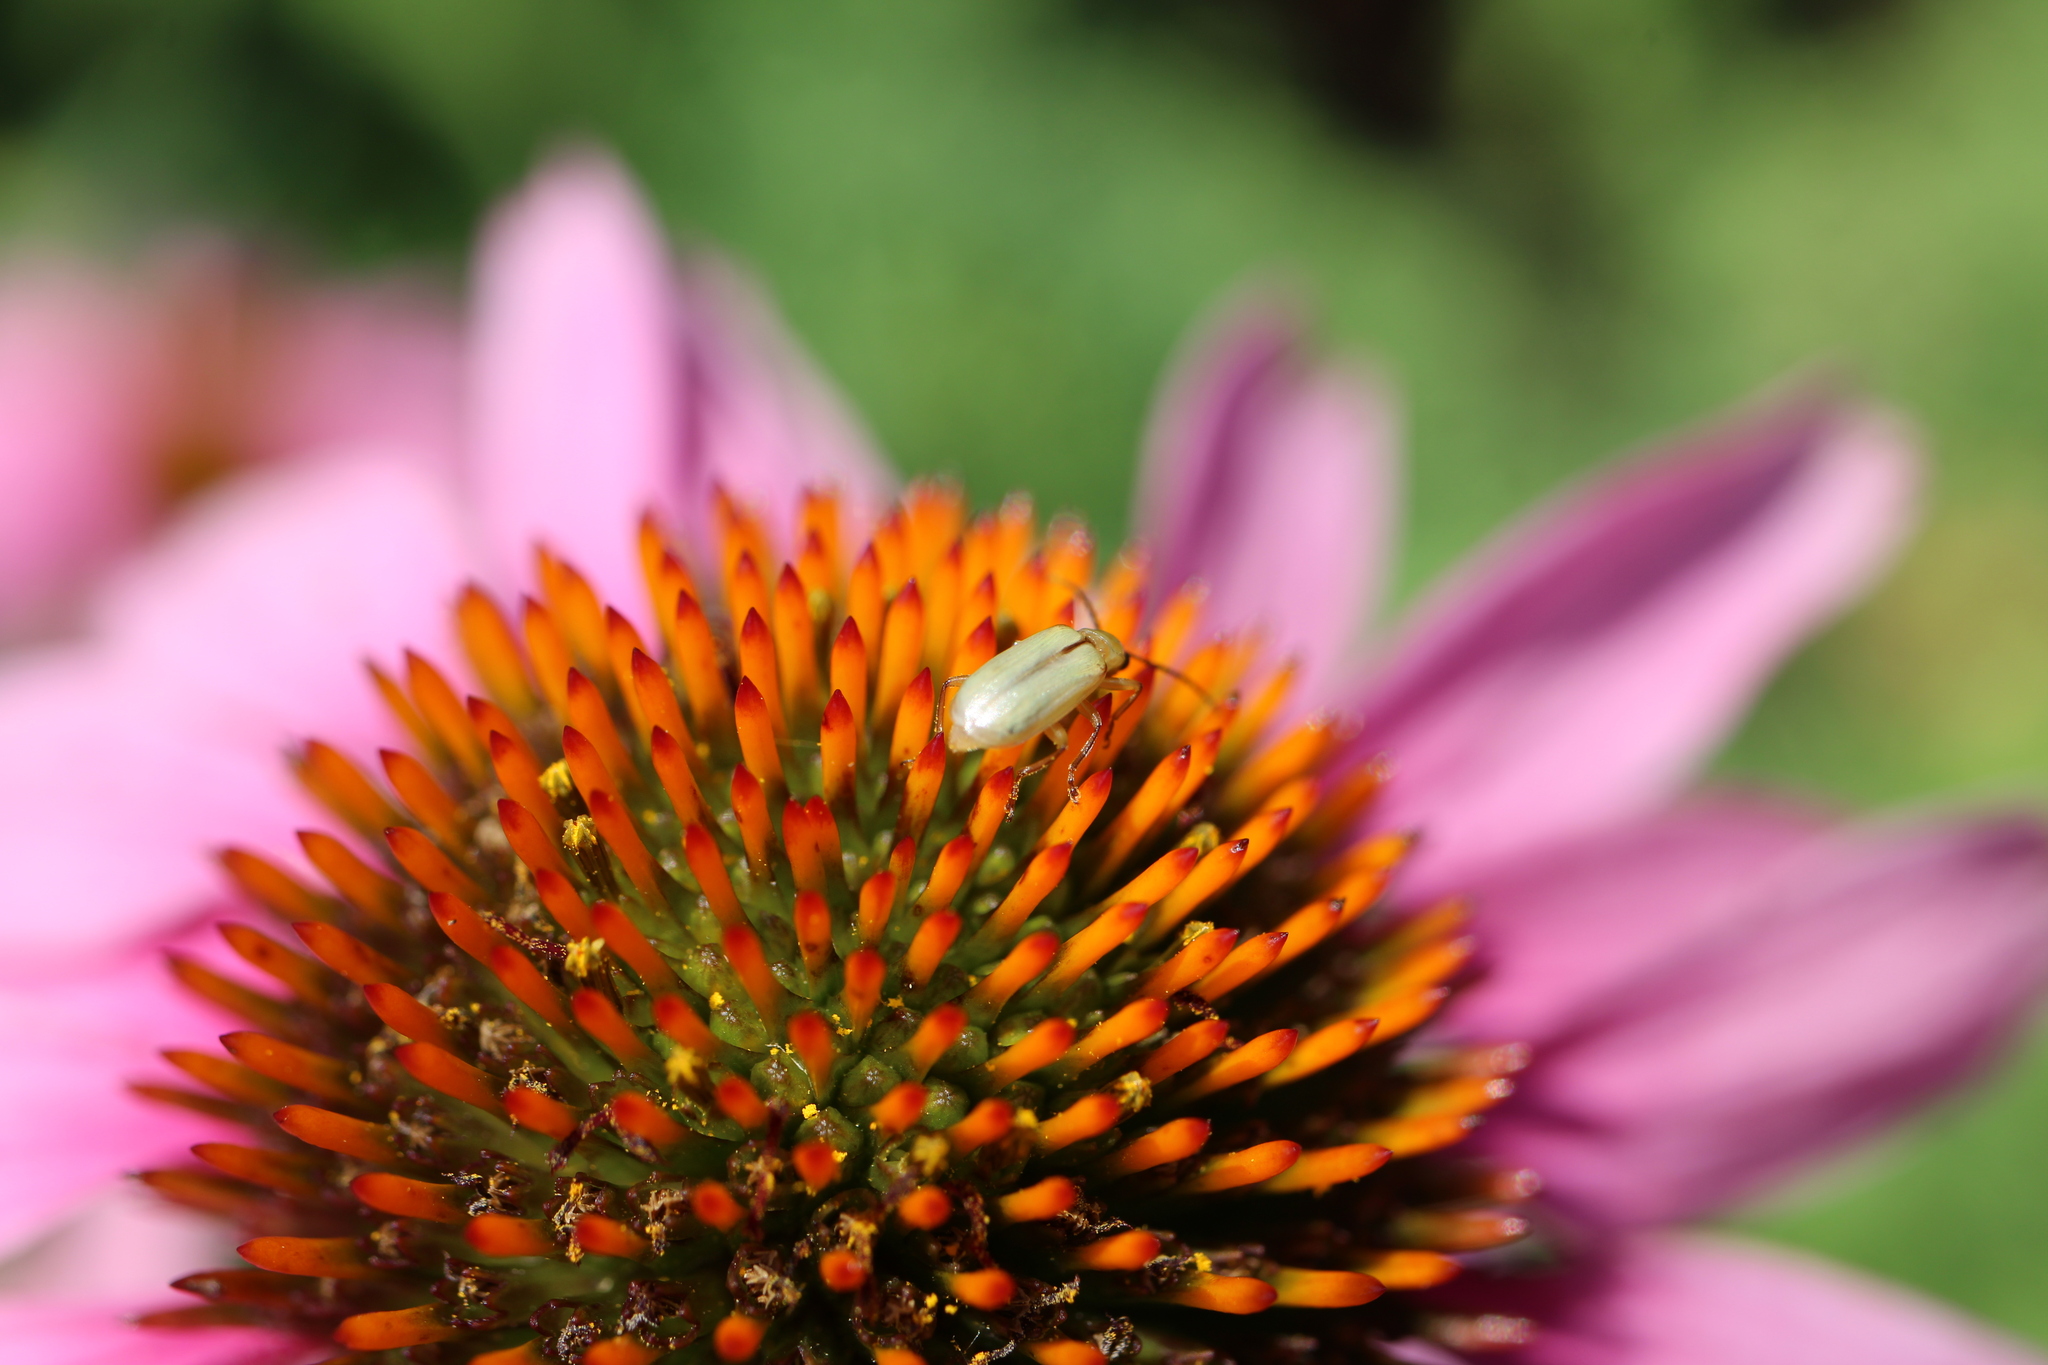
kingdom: Animalia
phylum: Arthropoda
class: Insecta
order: Coleoptera
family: Chrysomelidae
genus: Diabrotica
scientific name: Diabrotica barberi
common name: Northern corn rootworm
